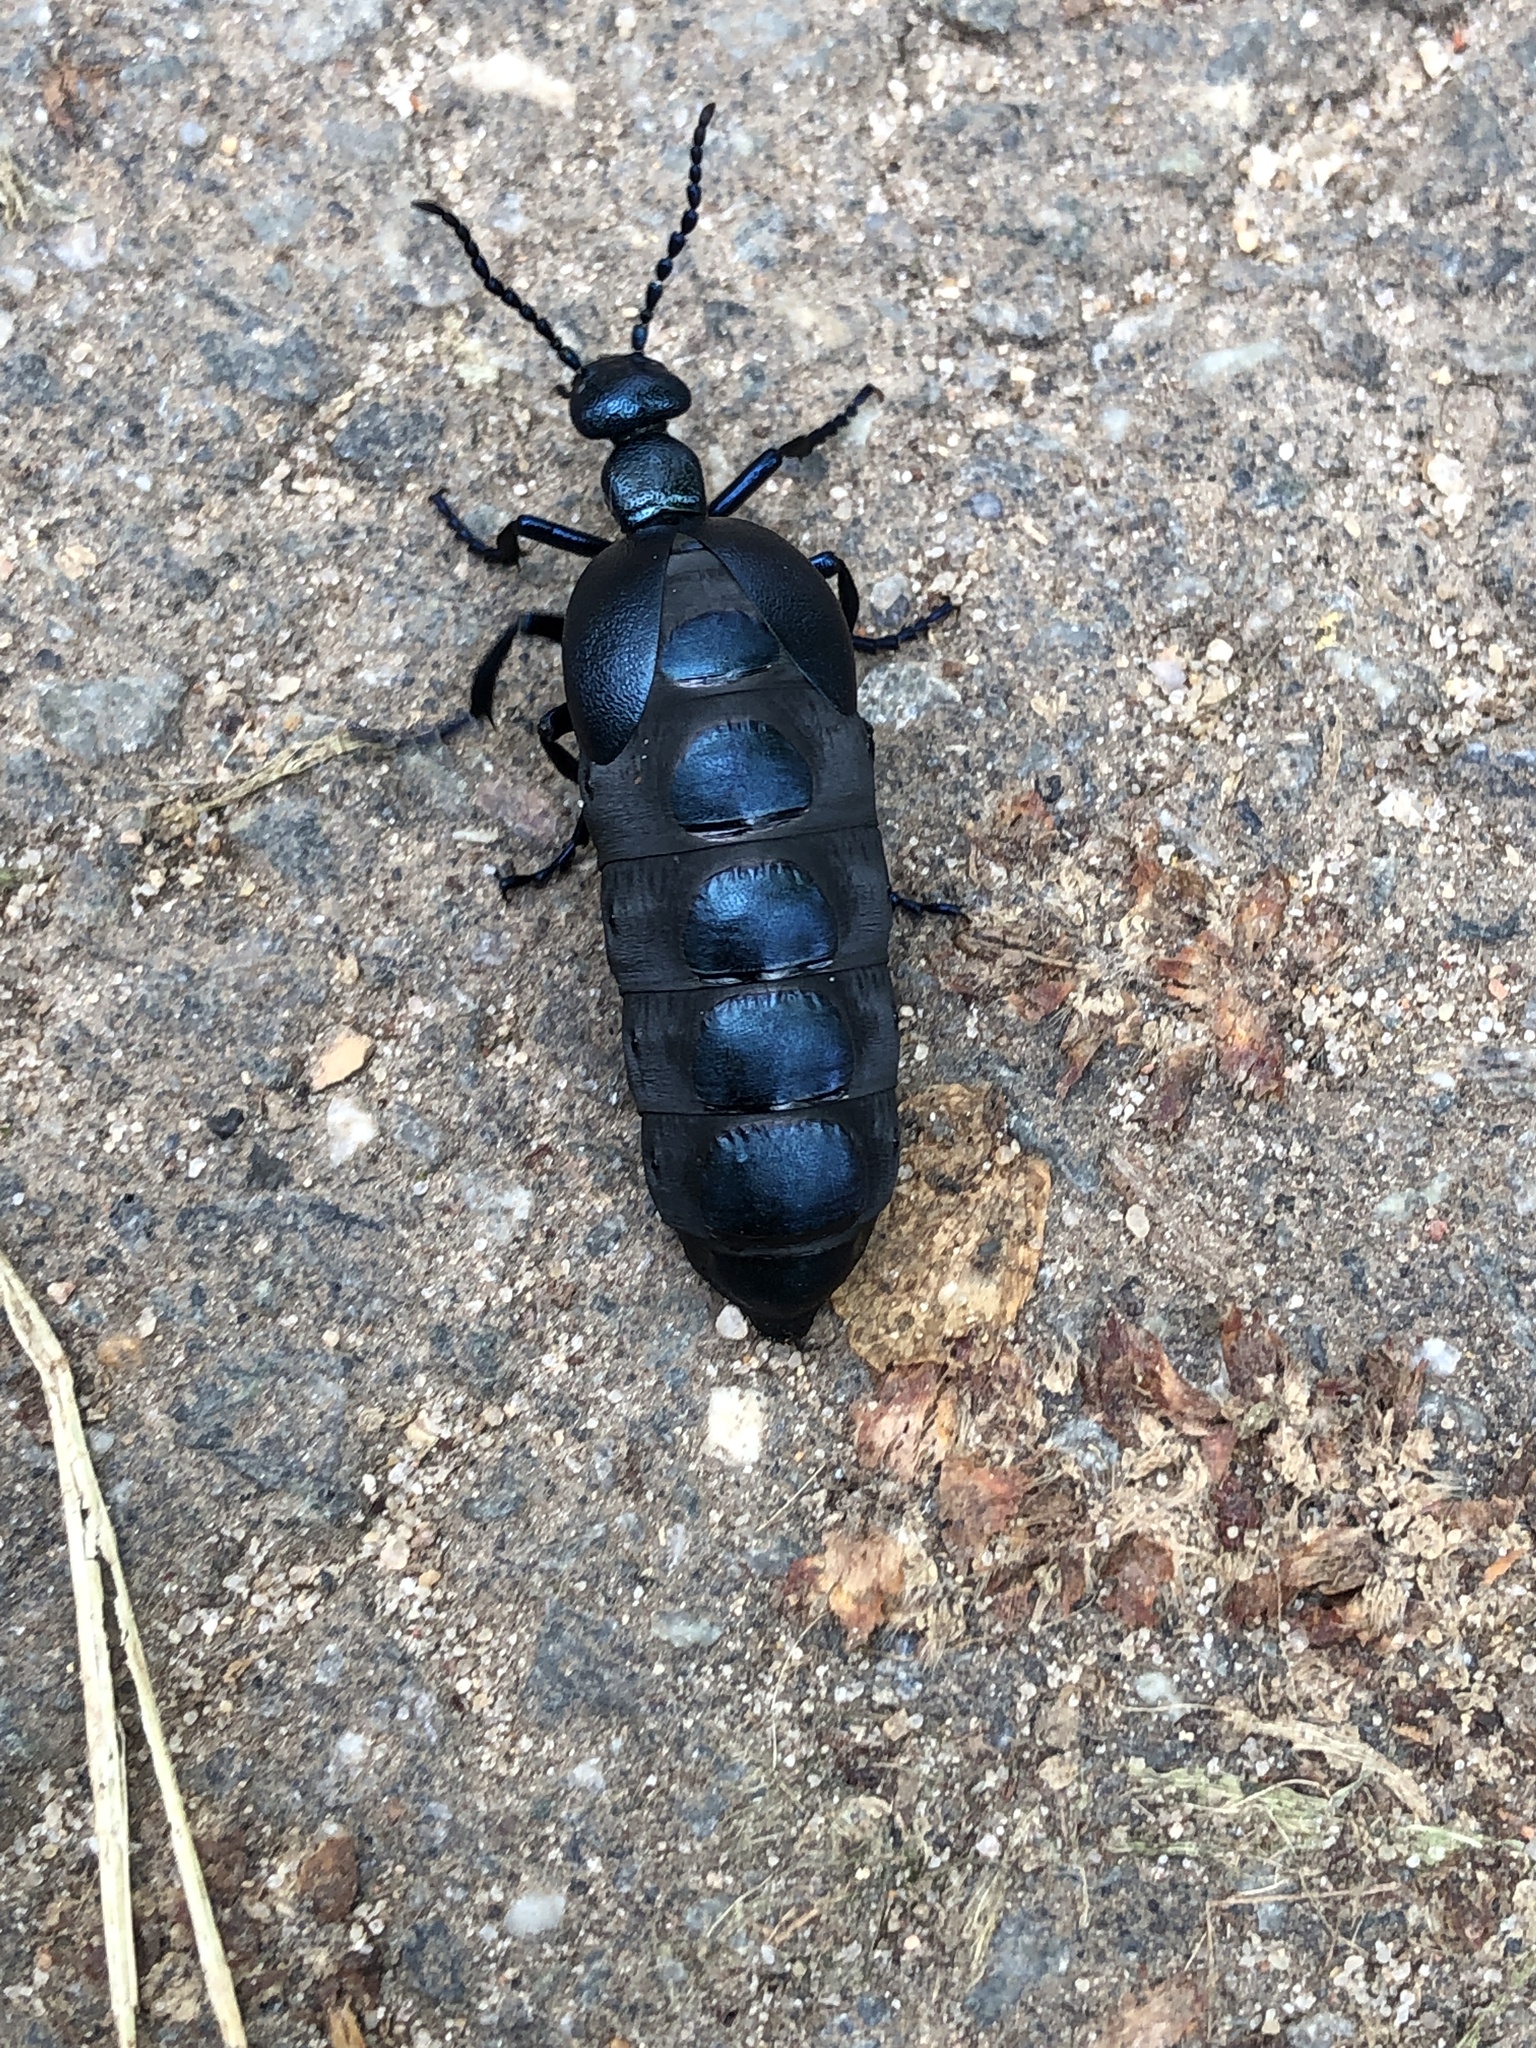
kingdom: Animalia
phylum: Arthropoda
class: Insecta
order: Coleoptera
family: Meloidae
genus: Meloe
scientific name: Meloe violaceus
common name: Violet oil-beetle
